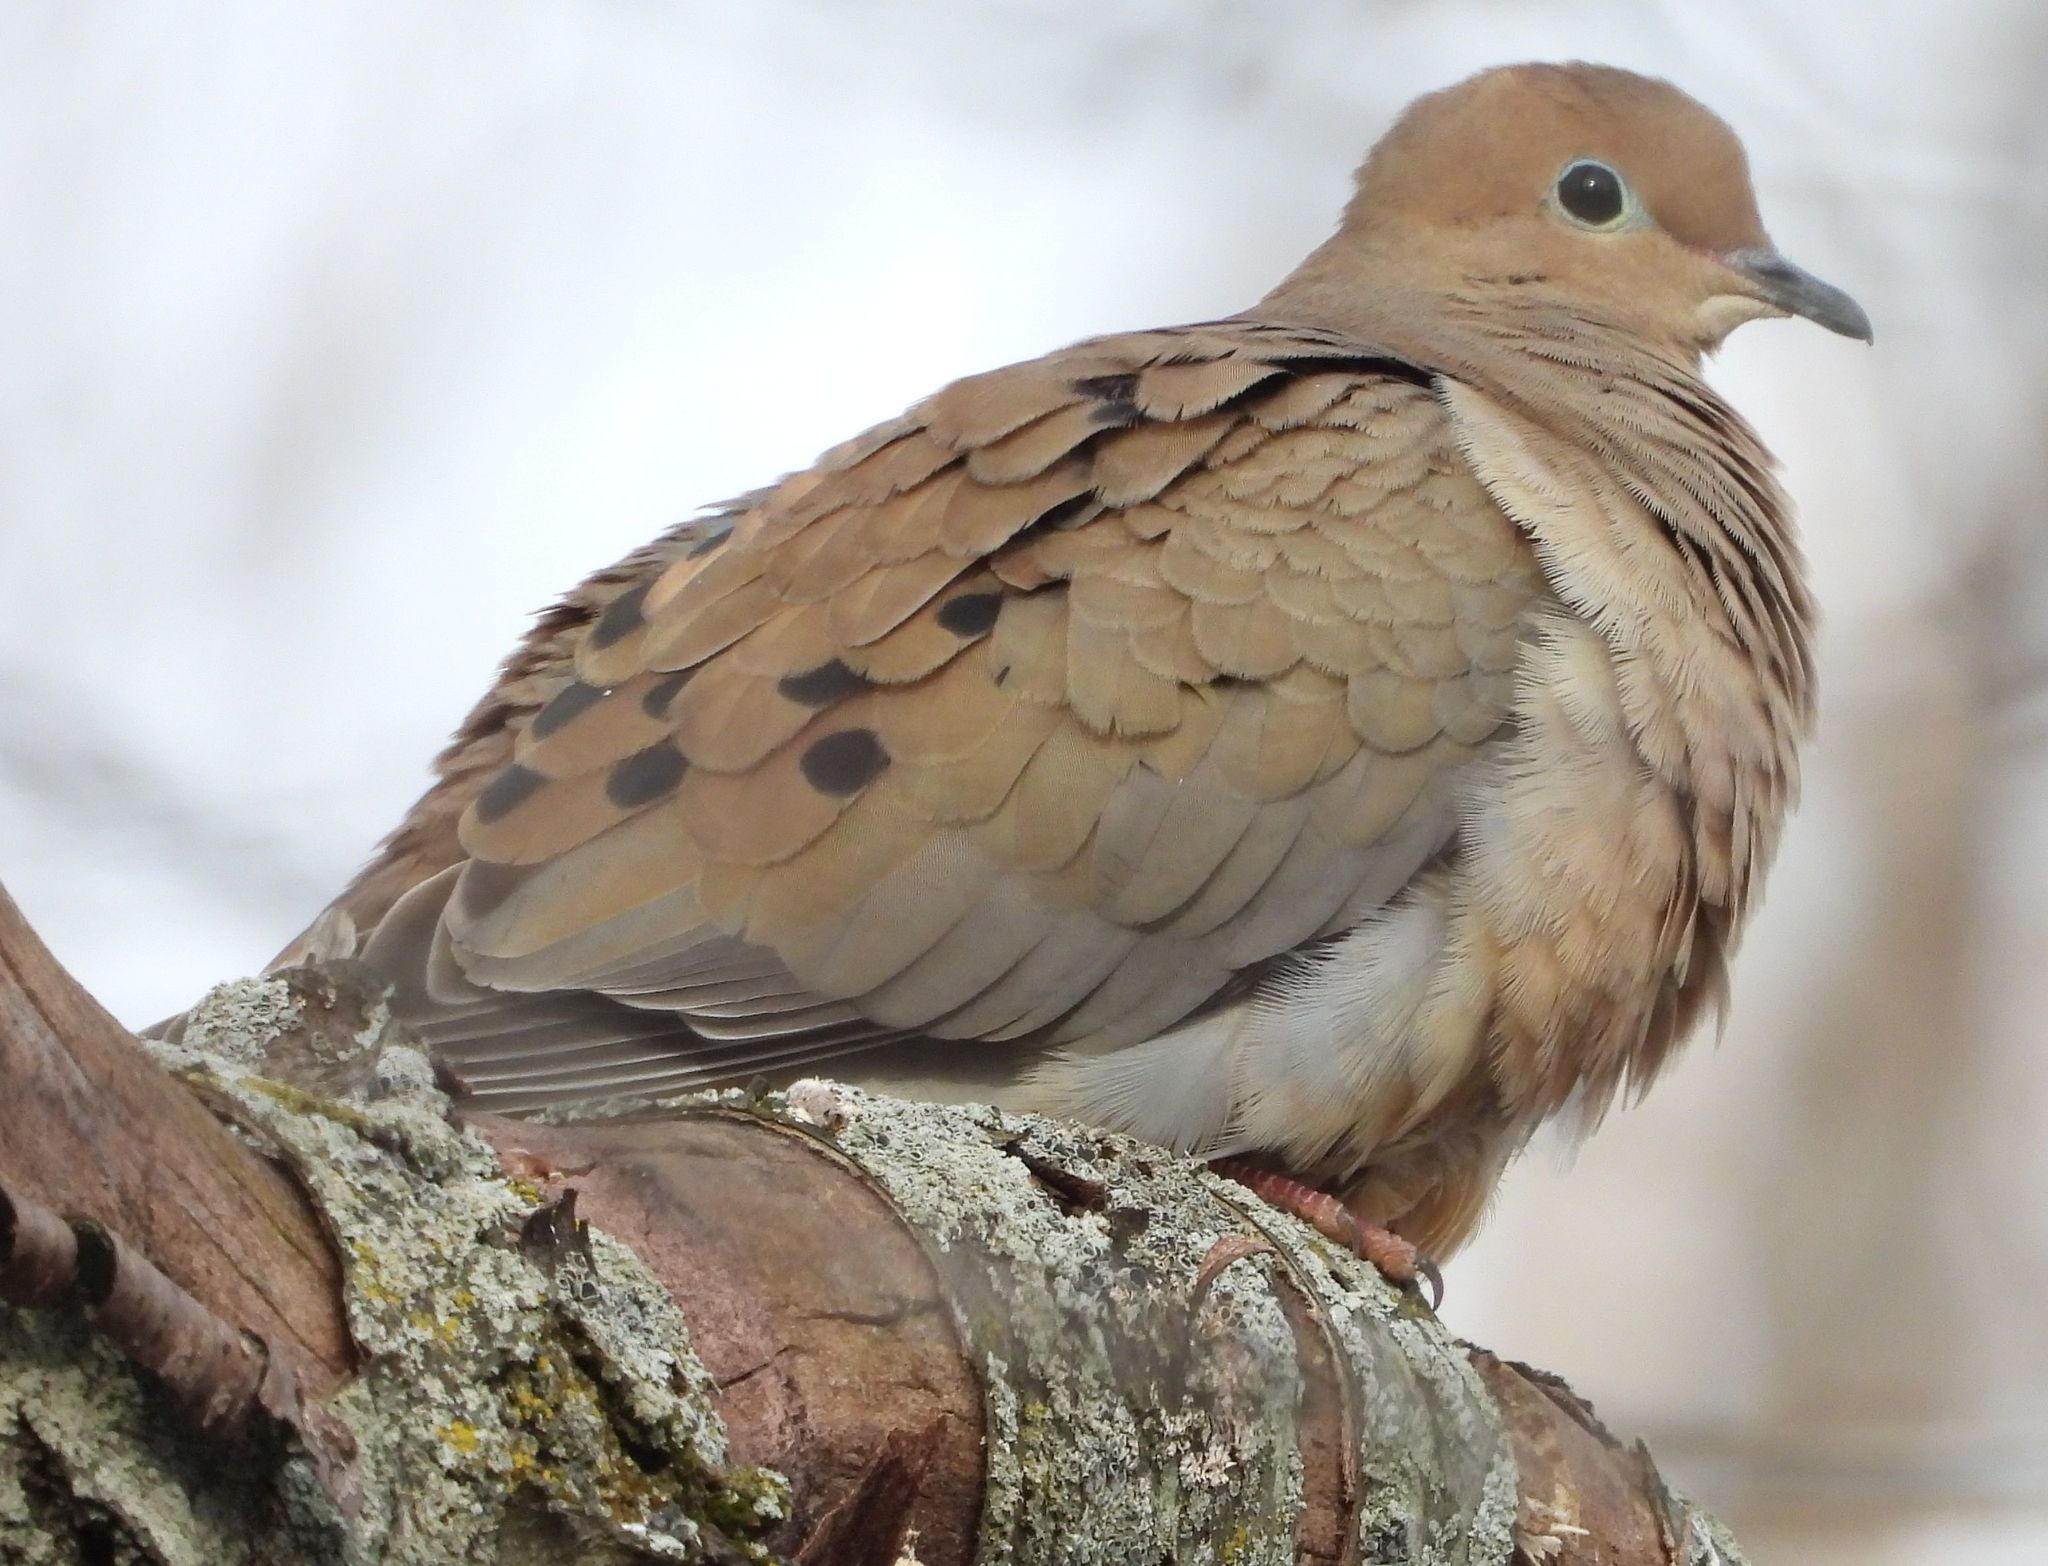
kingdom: Animalia
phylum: Chordata
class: Aves
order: Columbiformes
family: Columbidae
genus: Zenaida
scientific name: Zenaida macroura
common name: Mourning dove
